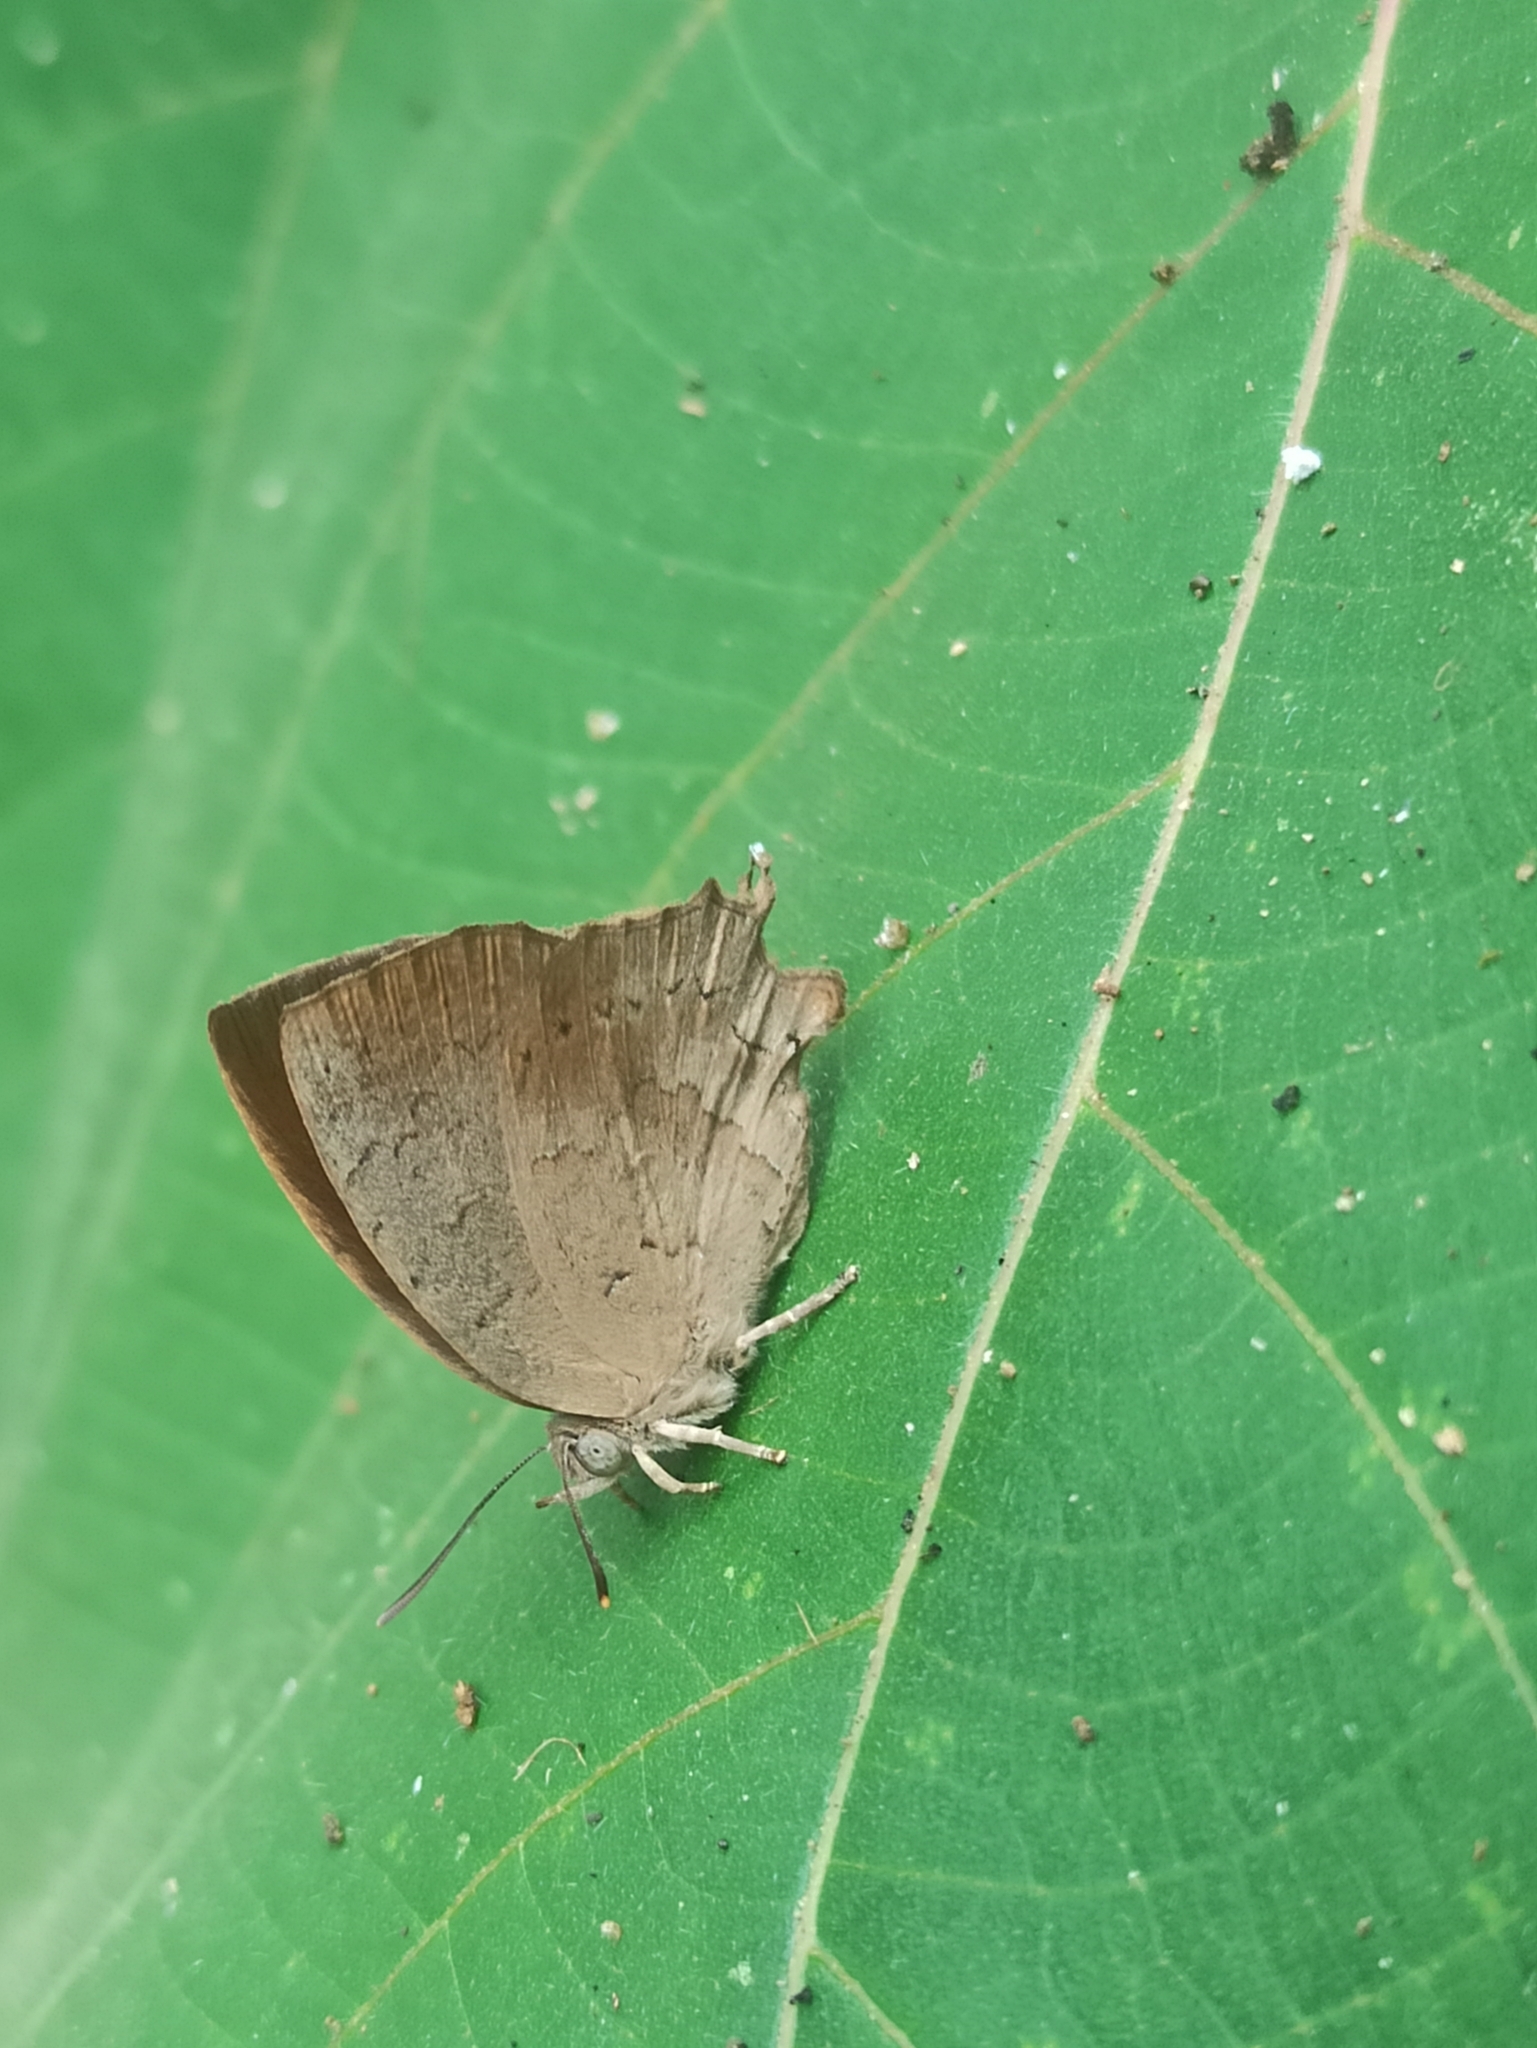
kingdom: Animalia
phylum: Arthropoda
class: Insecta
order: Lepidoptera
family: Lycaenidae
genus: Surendra
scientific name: Surendra quercetorum
